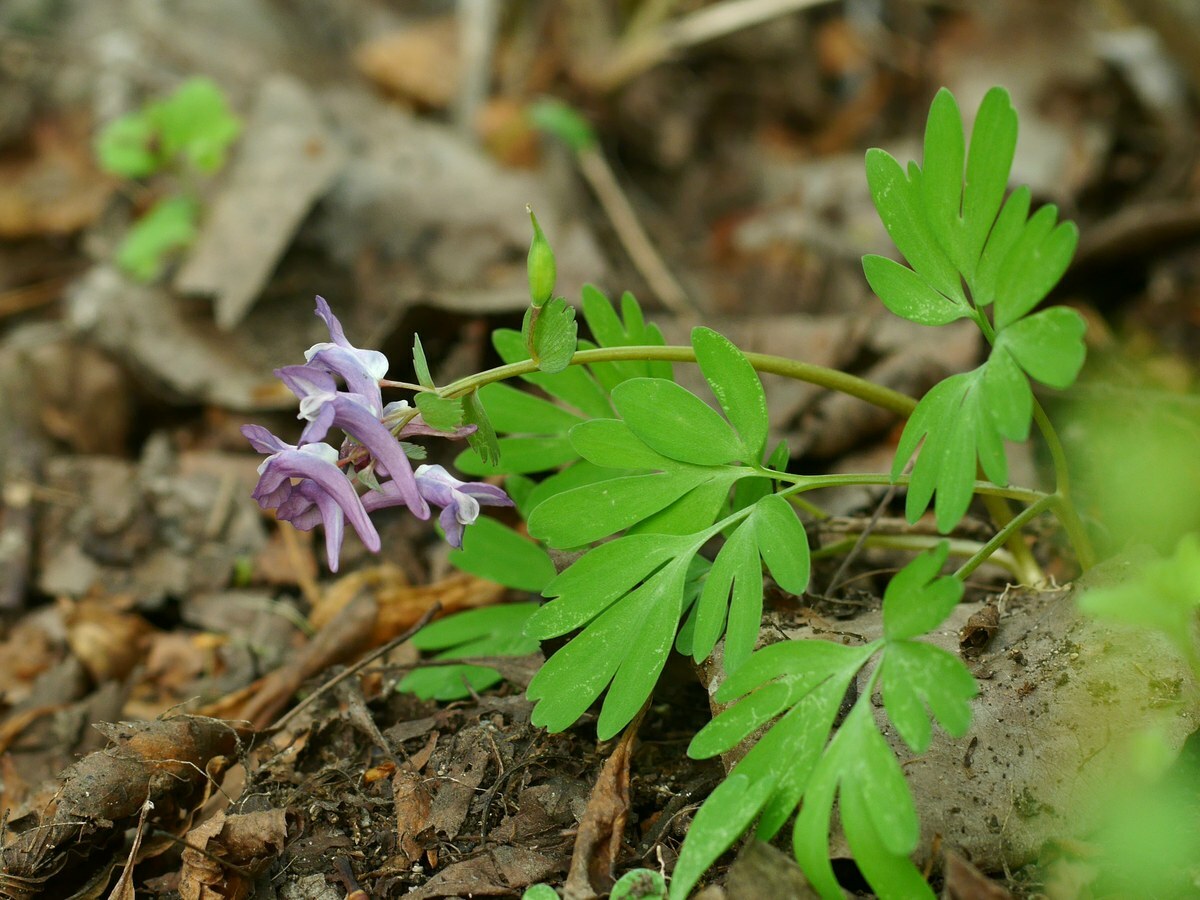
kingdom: Plantae
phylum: Tracheophyta
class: Magnoliopsida
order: Ranunculales
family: Papaveraceae
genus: Corydalis
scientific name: Corydalis solida
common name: Bird-in-a-bush
